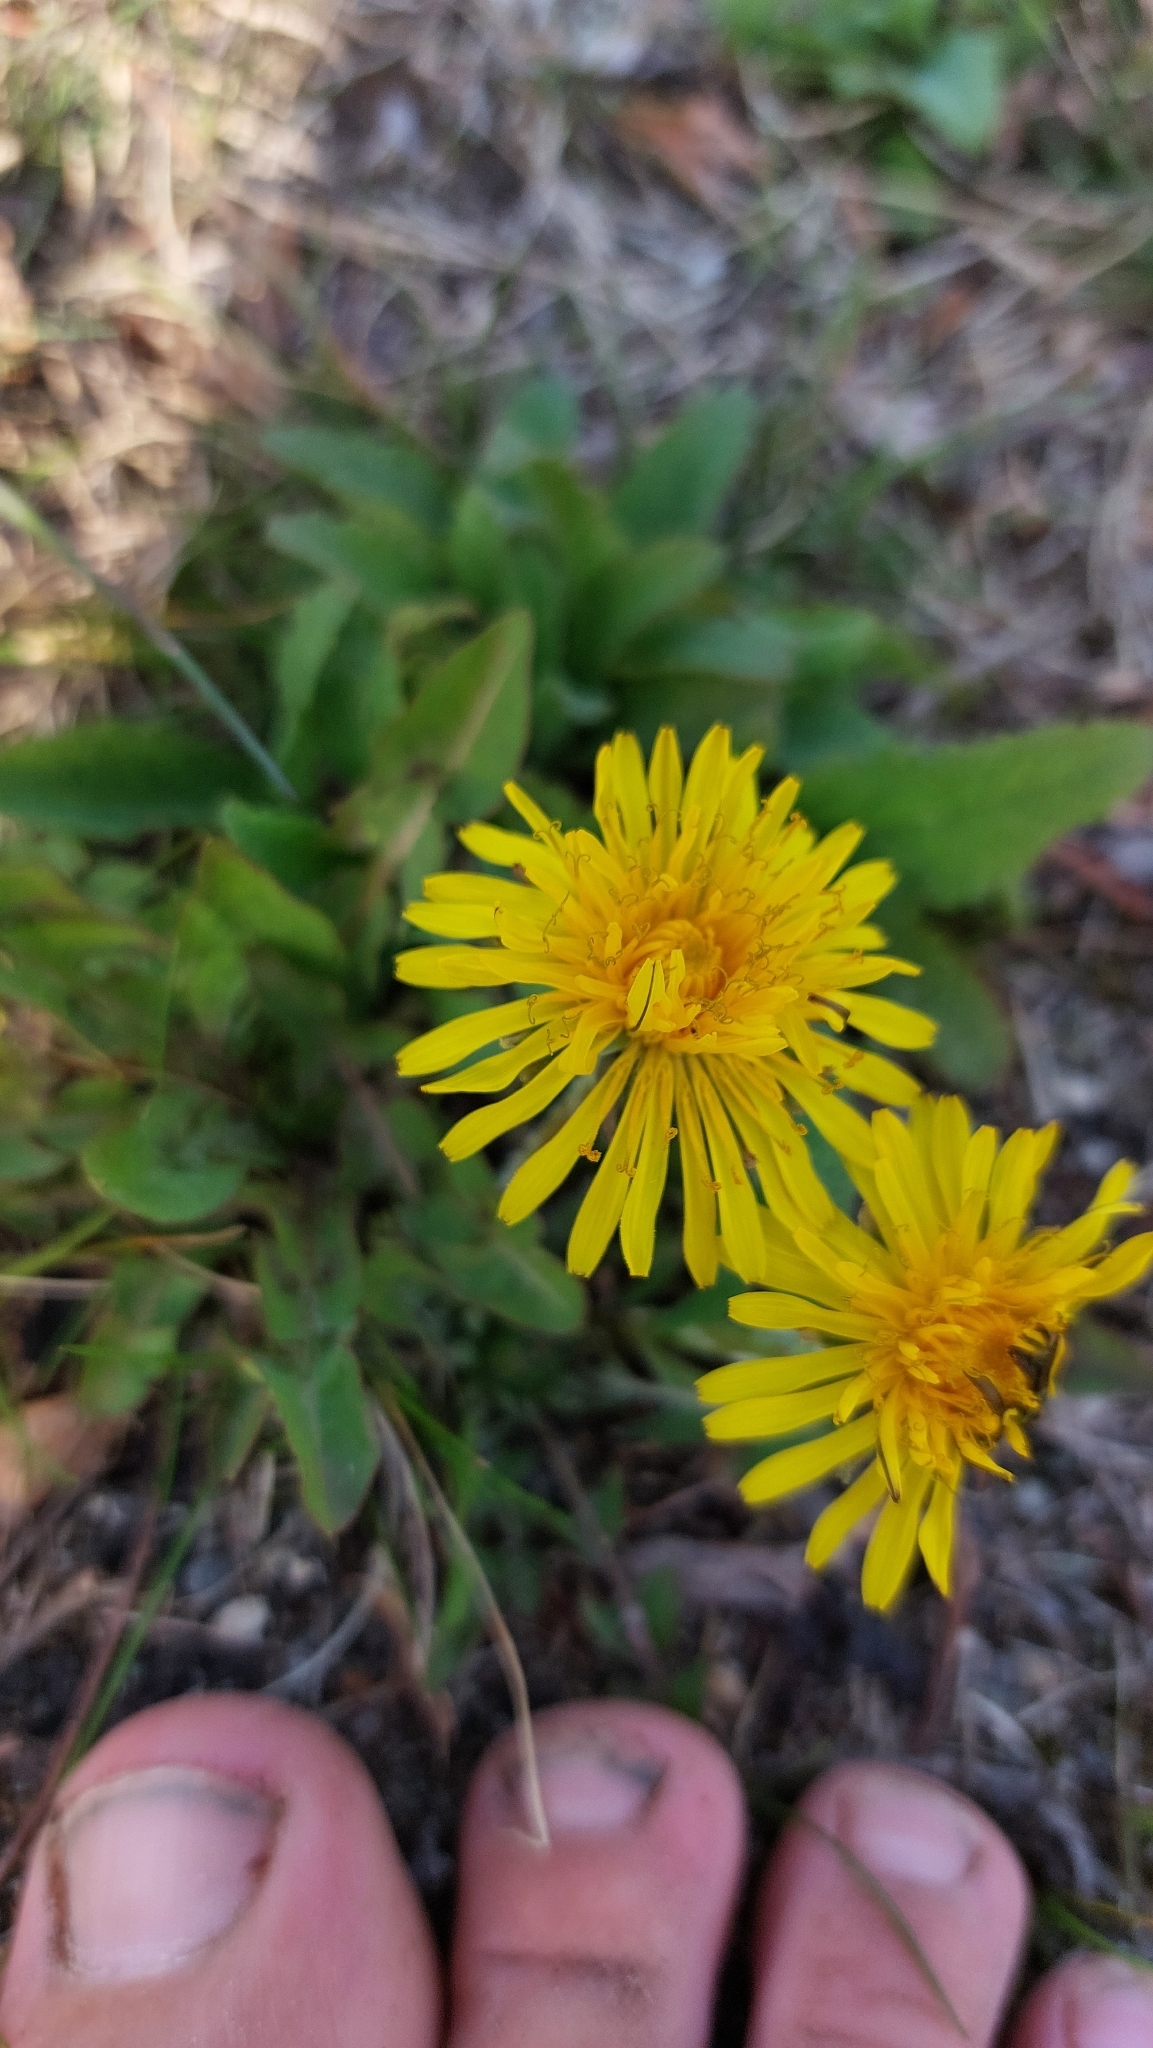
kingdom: Plantae
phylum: Tracheophyta
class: Magnoliopsida
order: Asterales
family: Asteraceae
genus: Taraxacum
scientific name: Taraxacum
